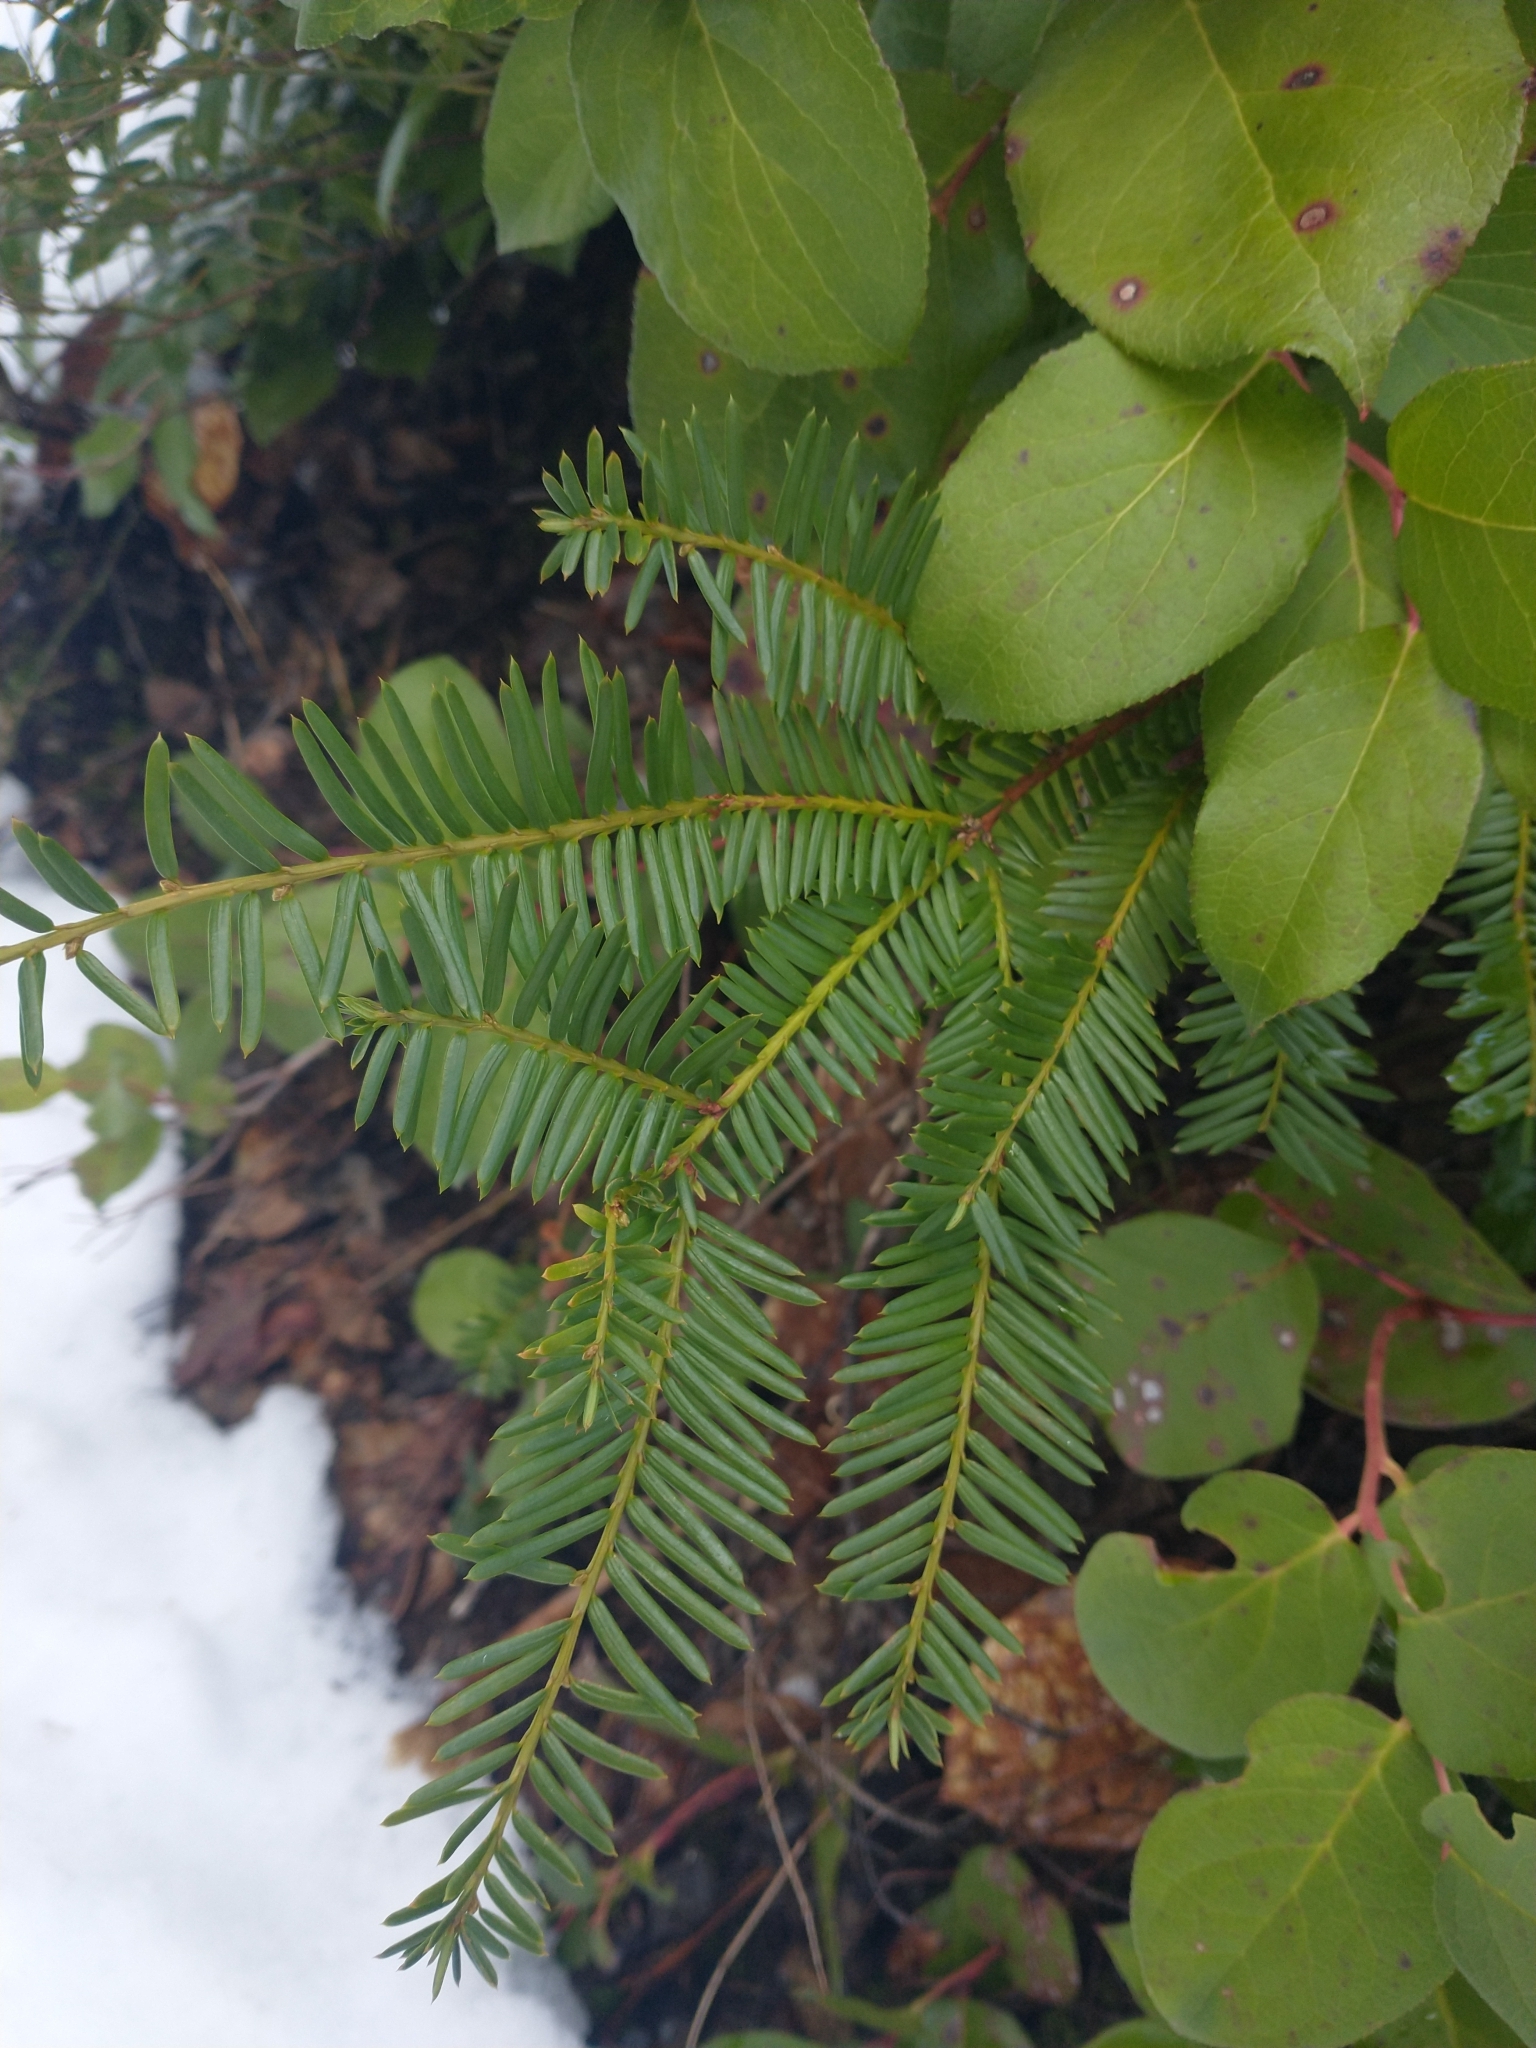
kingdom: Plantae
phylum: Tracheophyta
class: Pinopsida
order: Pinales
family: Taxaceae
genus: Taxus
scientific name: Taxus brevifolia
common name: Pacific yew
